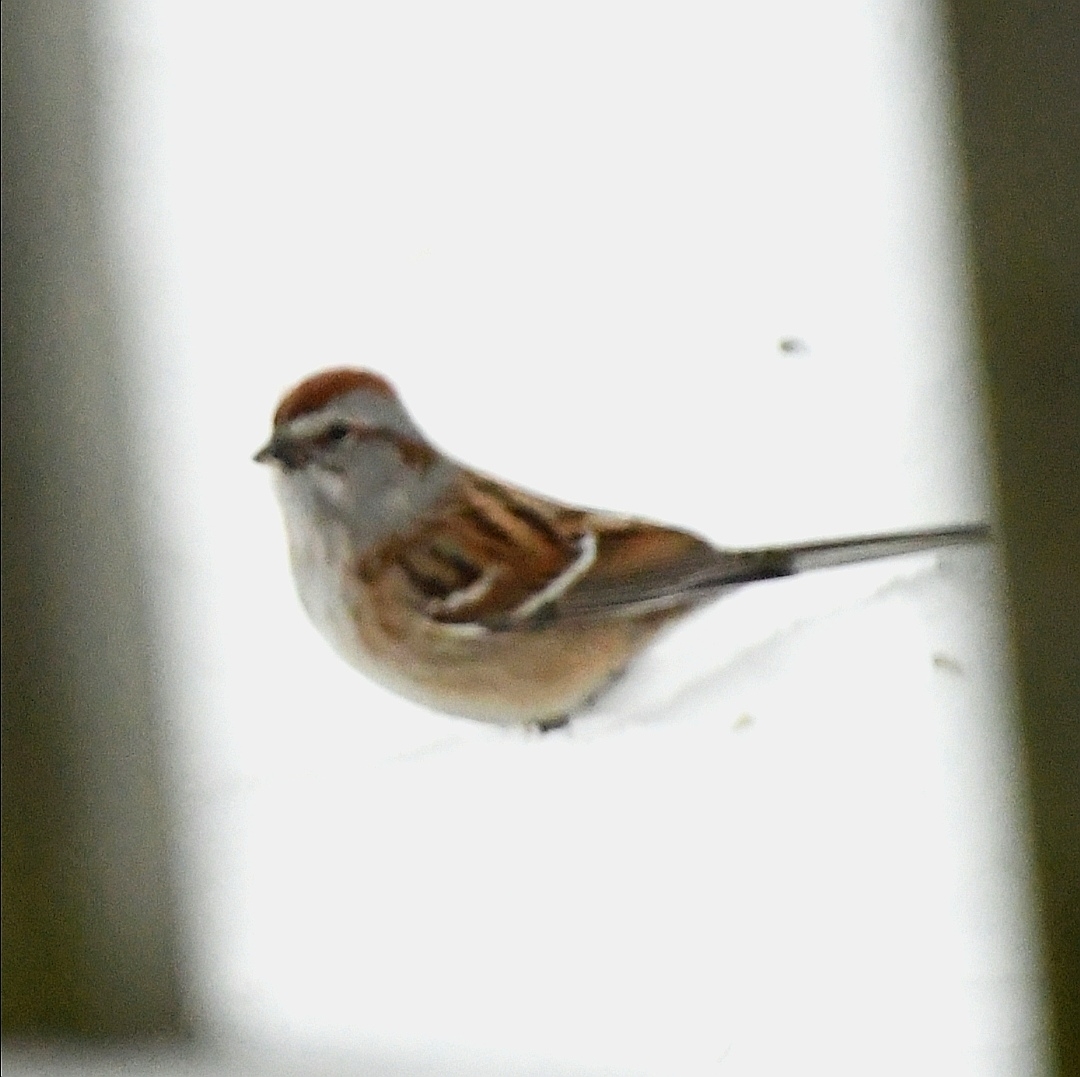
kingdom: Animalia
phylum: Chordata
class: Aves
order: Passeriformes
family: Passerellidae
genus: Spizelloides
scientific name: Spizelloides arborea
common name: American tree sparrow
